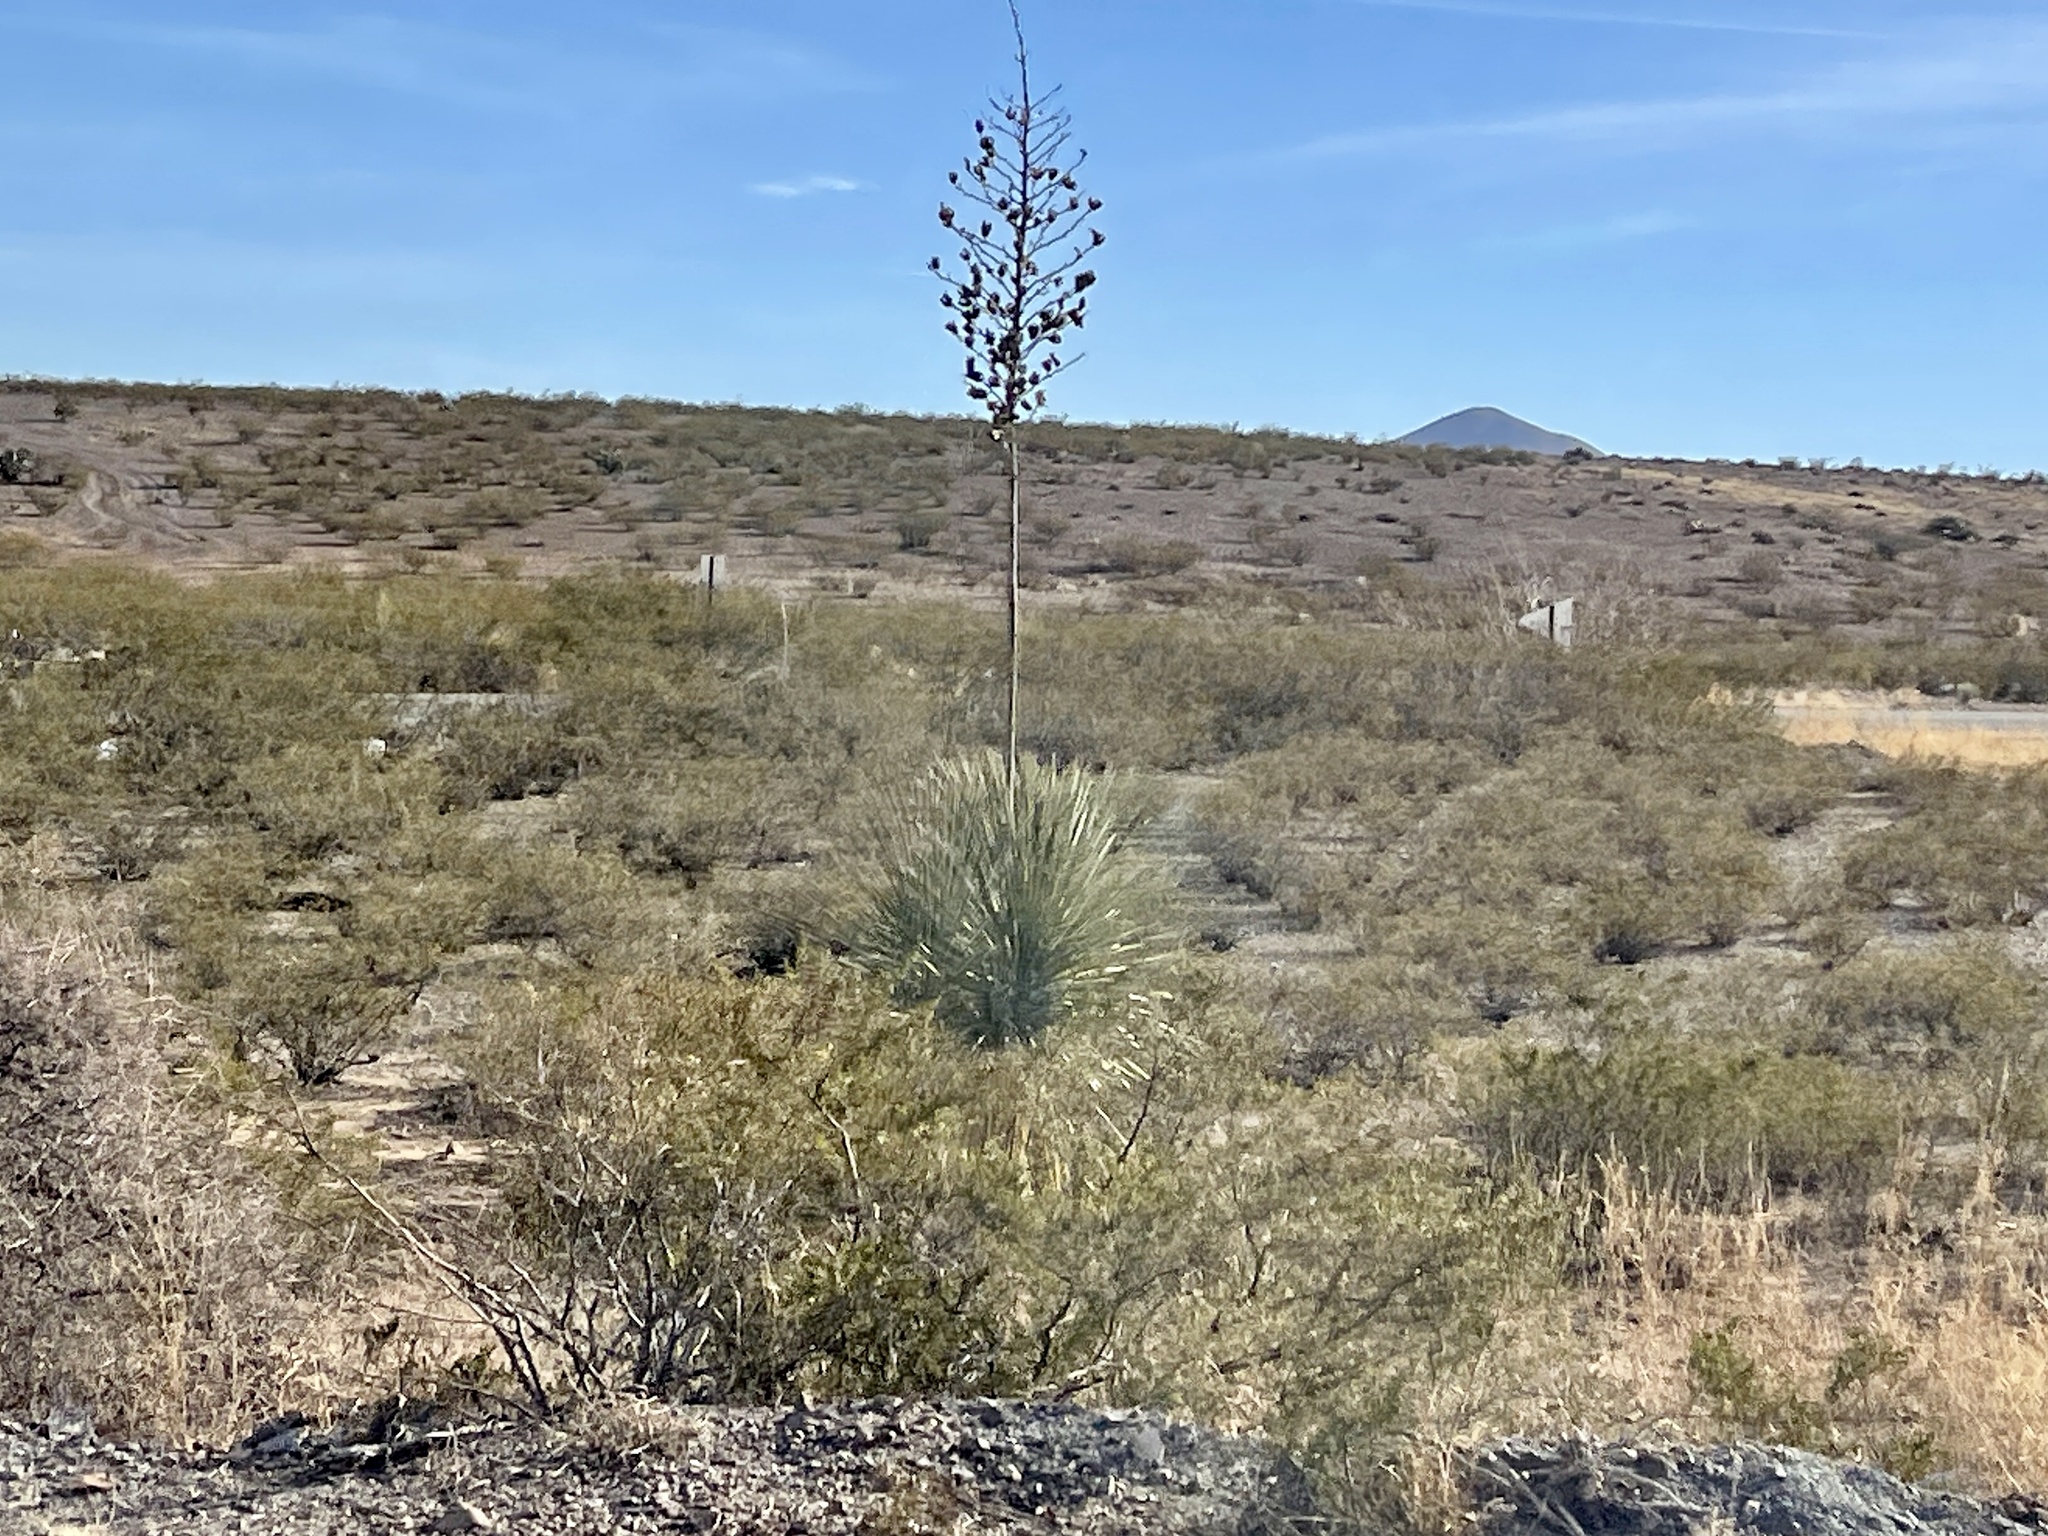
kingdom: Plantae
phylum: Tracheophyta
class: Liliopsida
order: Asparagales
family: Asparagaceae
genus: Yucca
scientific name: Yucca elata
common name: Palmella
